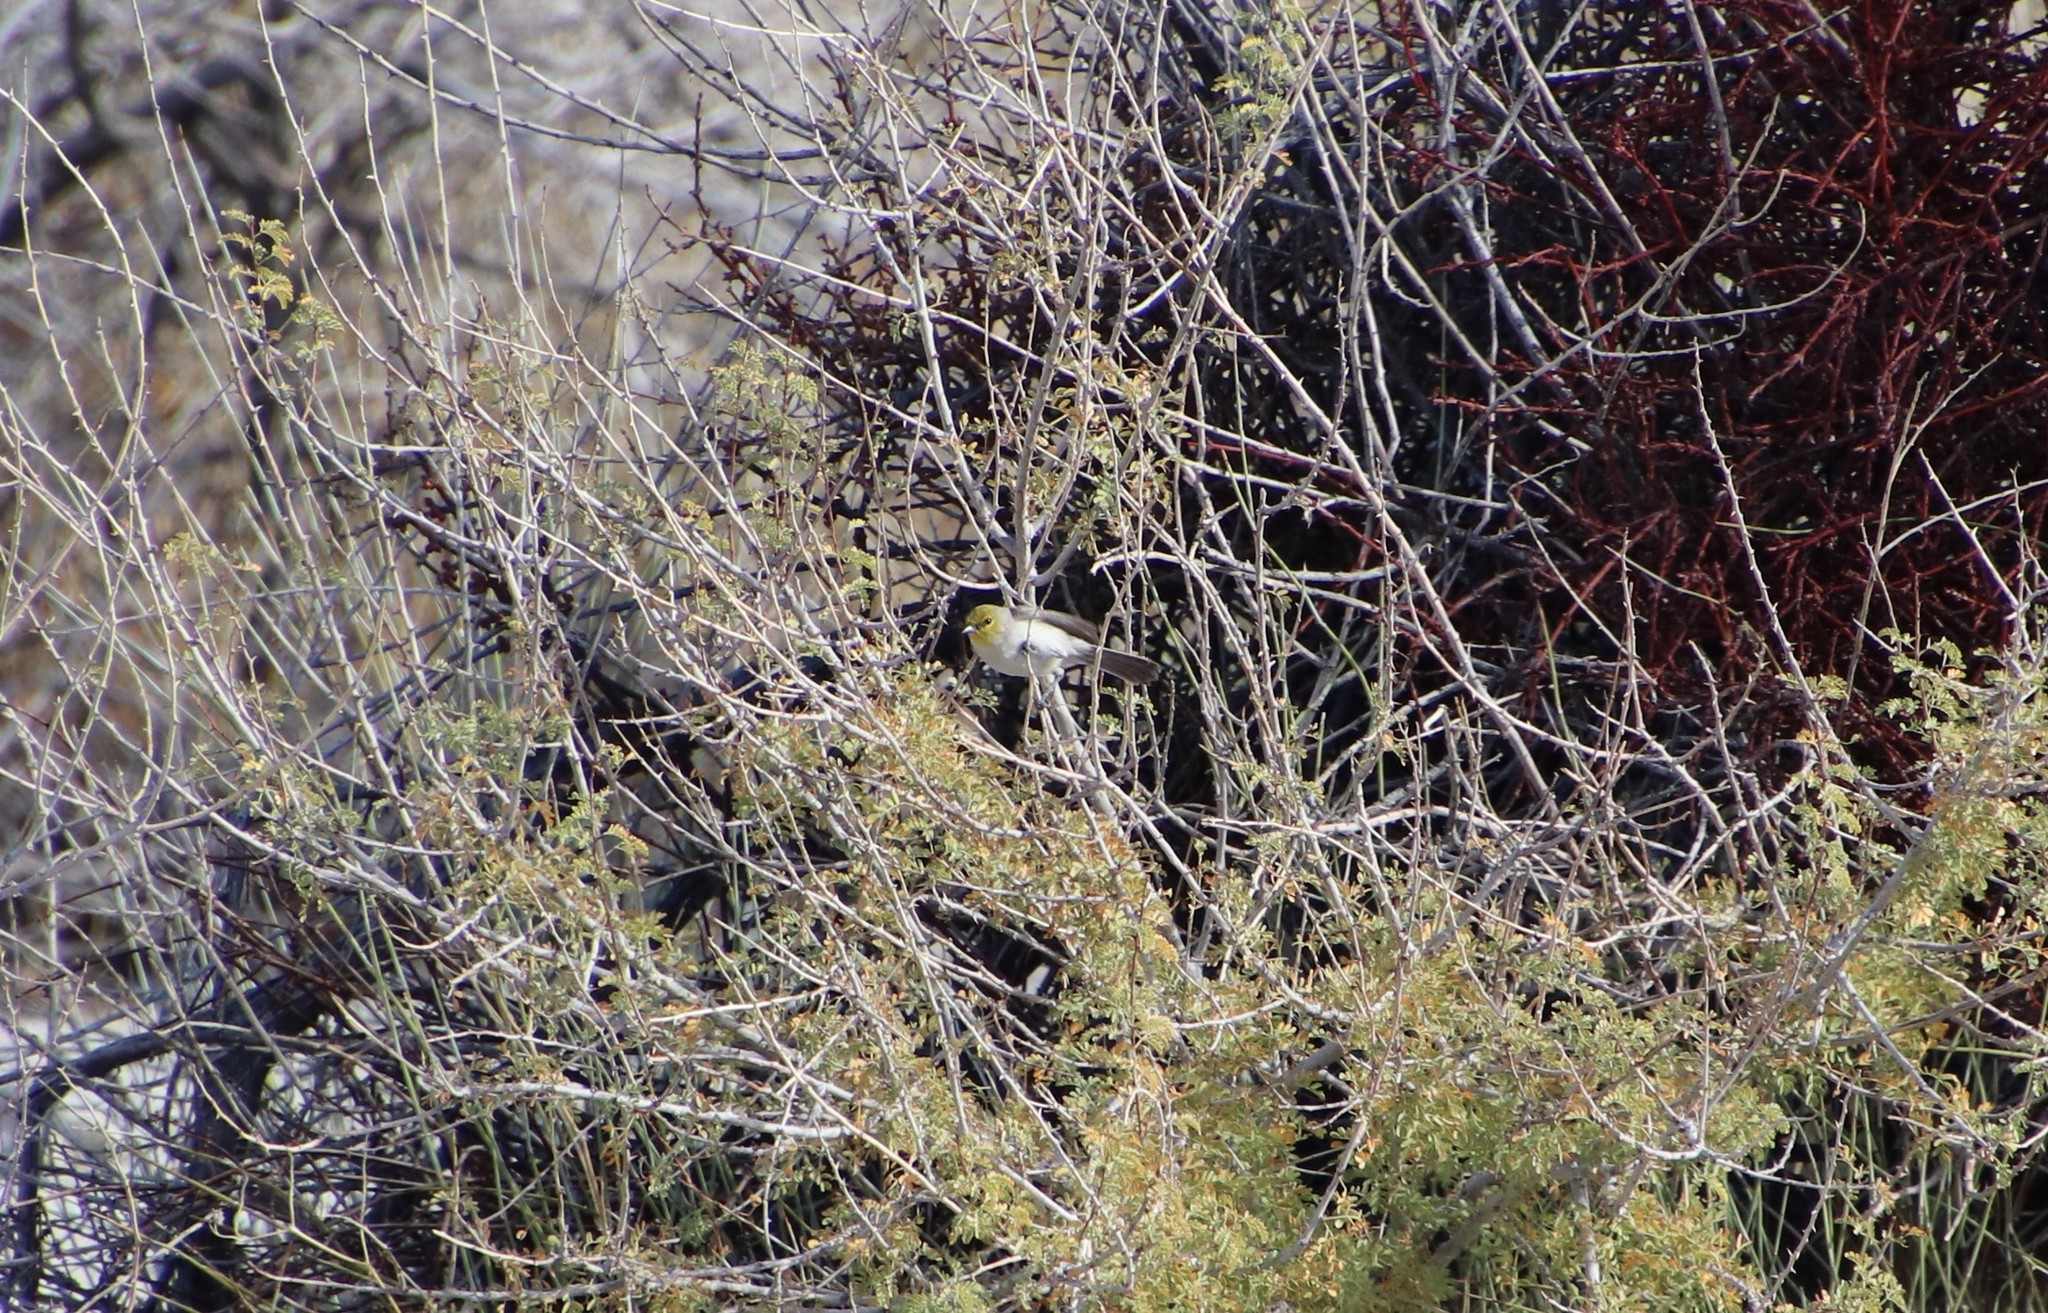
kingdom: Animalia
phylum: Chordata
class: Aves
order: Passeriformes
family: Remizidae
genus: Auriparus
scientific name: Auriparus flaviceps
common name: Verdin
